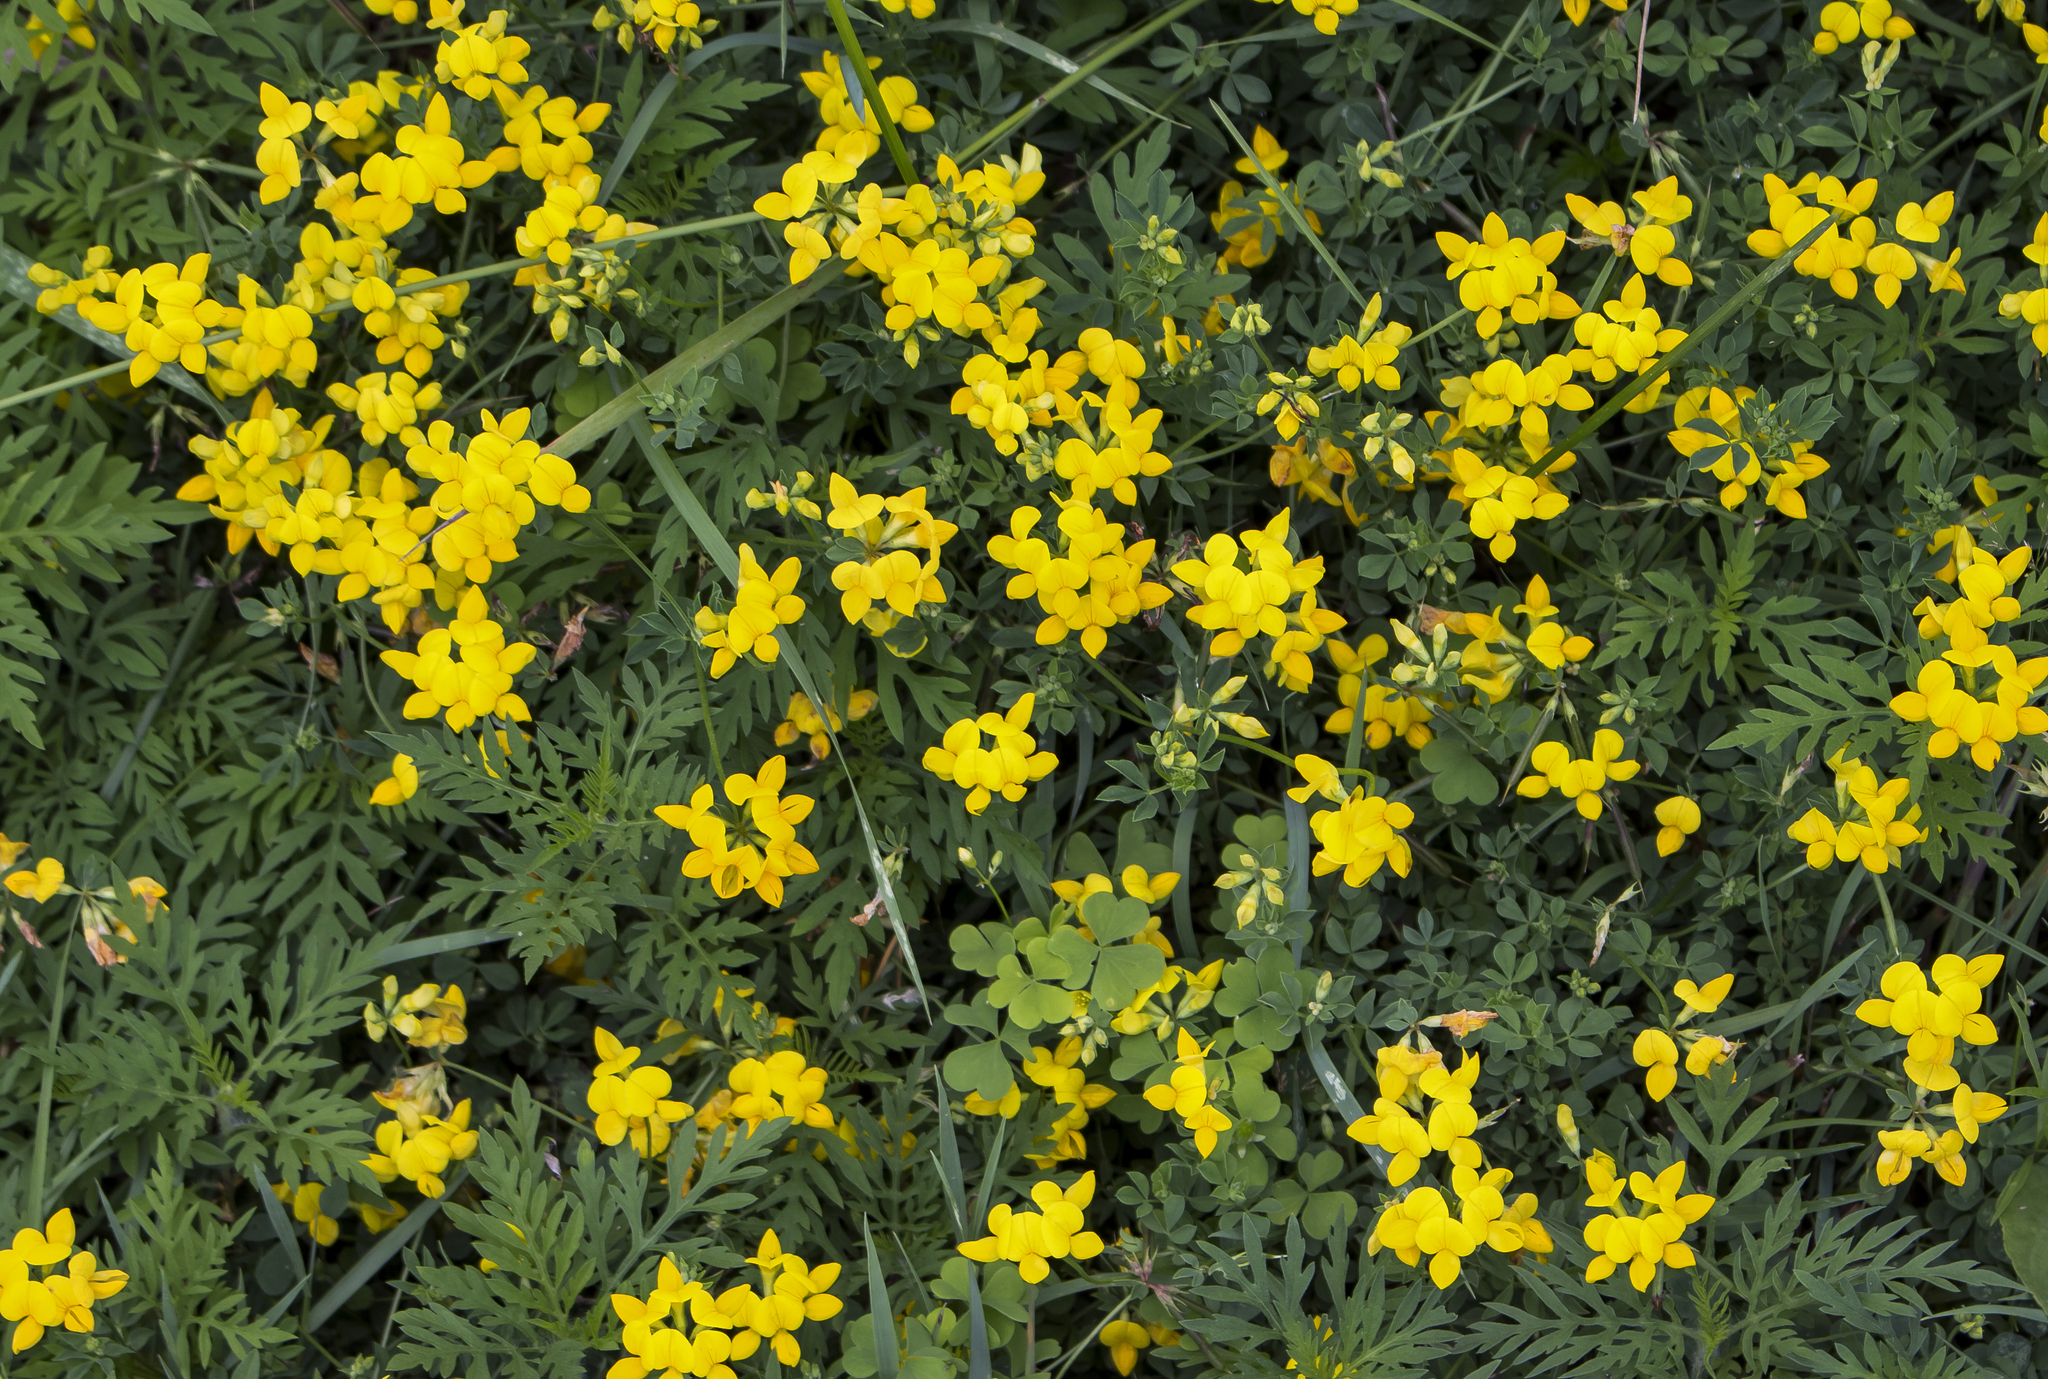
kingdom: Plantae
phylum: Tracheophyta
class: Magnoliopsida
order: Fabales
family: Fabaceae
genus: Lotus
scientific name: Lotus corniculatus
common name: Common bird's-foot-trefoil
